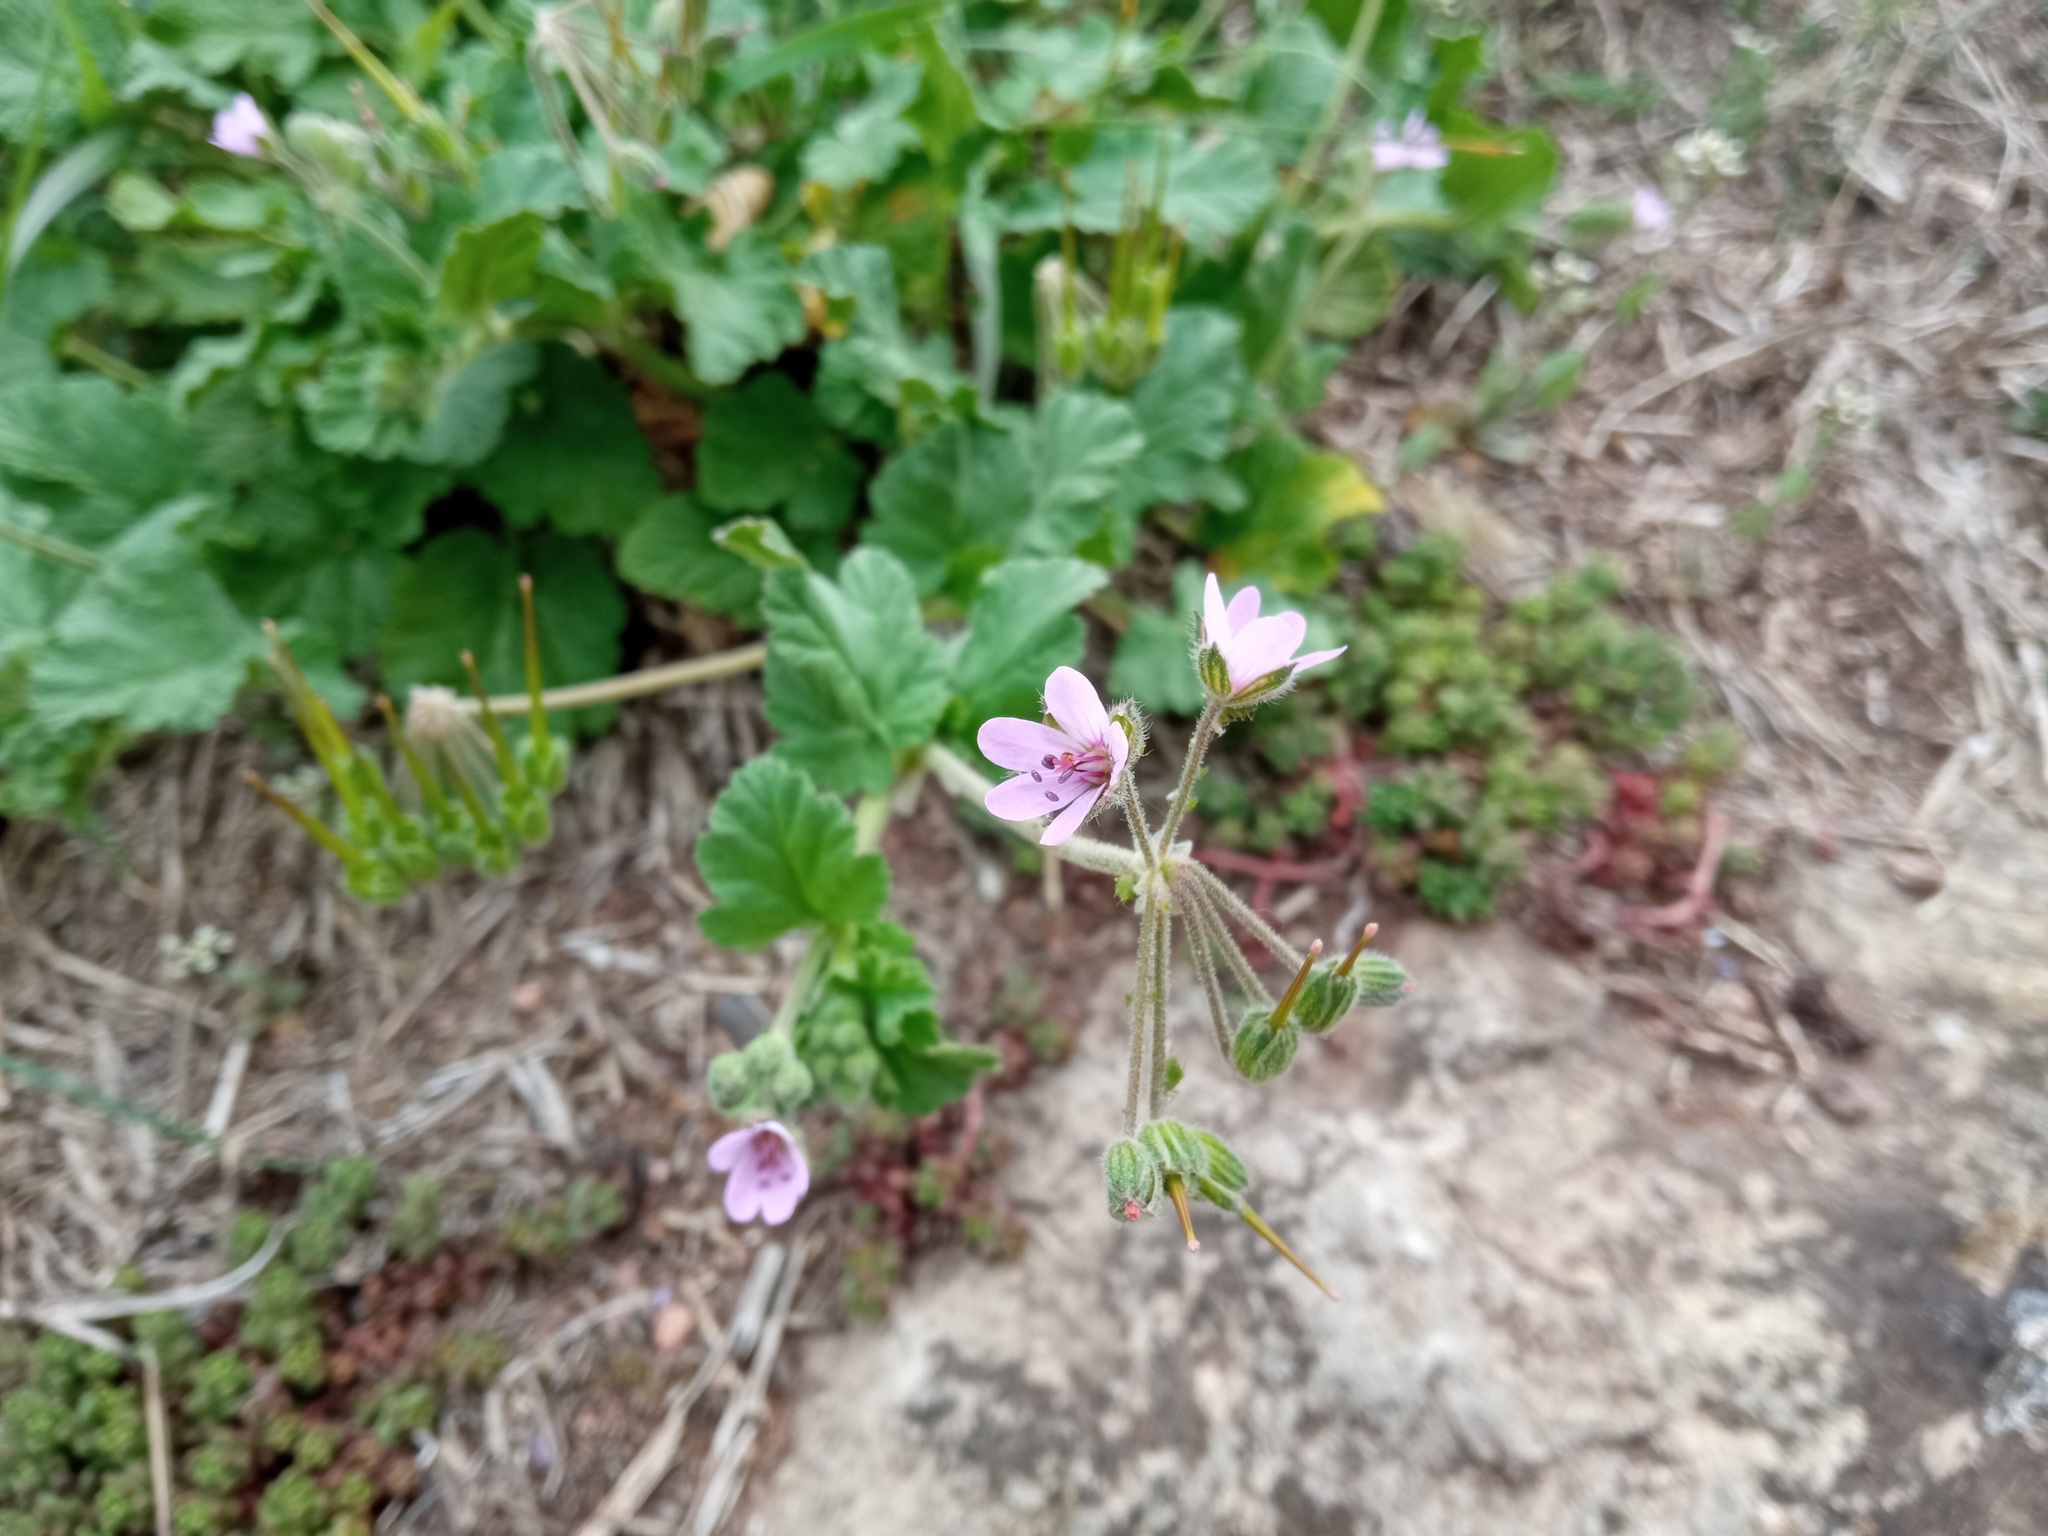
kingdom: Plantae
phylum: Tracheophyta
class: Magnoliopsida
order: Geraniales
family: Geraniaceae
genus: Erodium
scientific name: Erodium malacoides
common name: Soft stork's-bill
